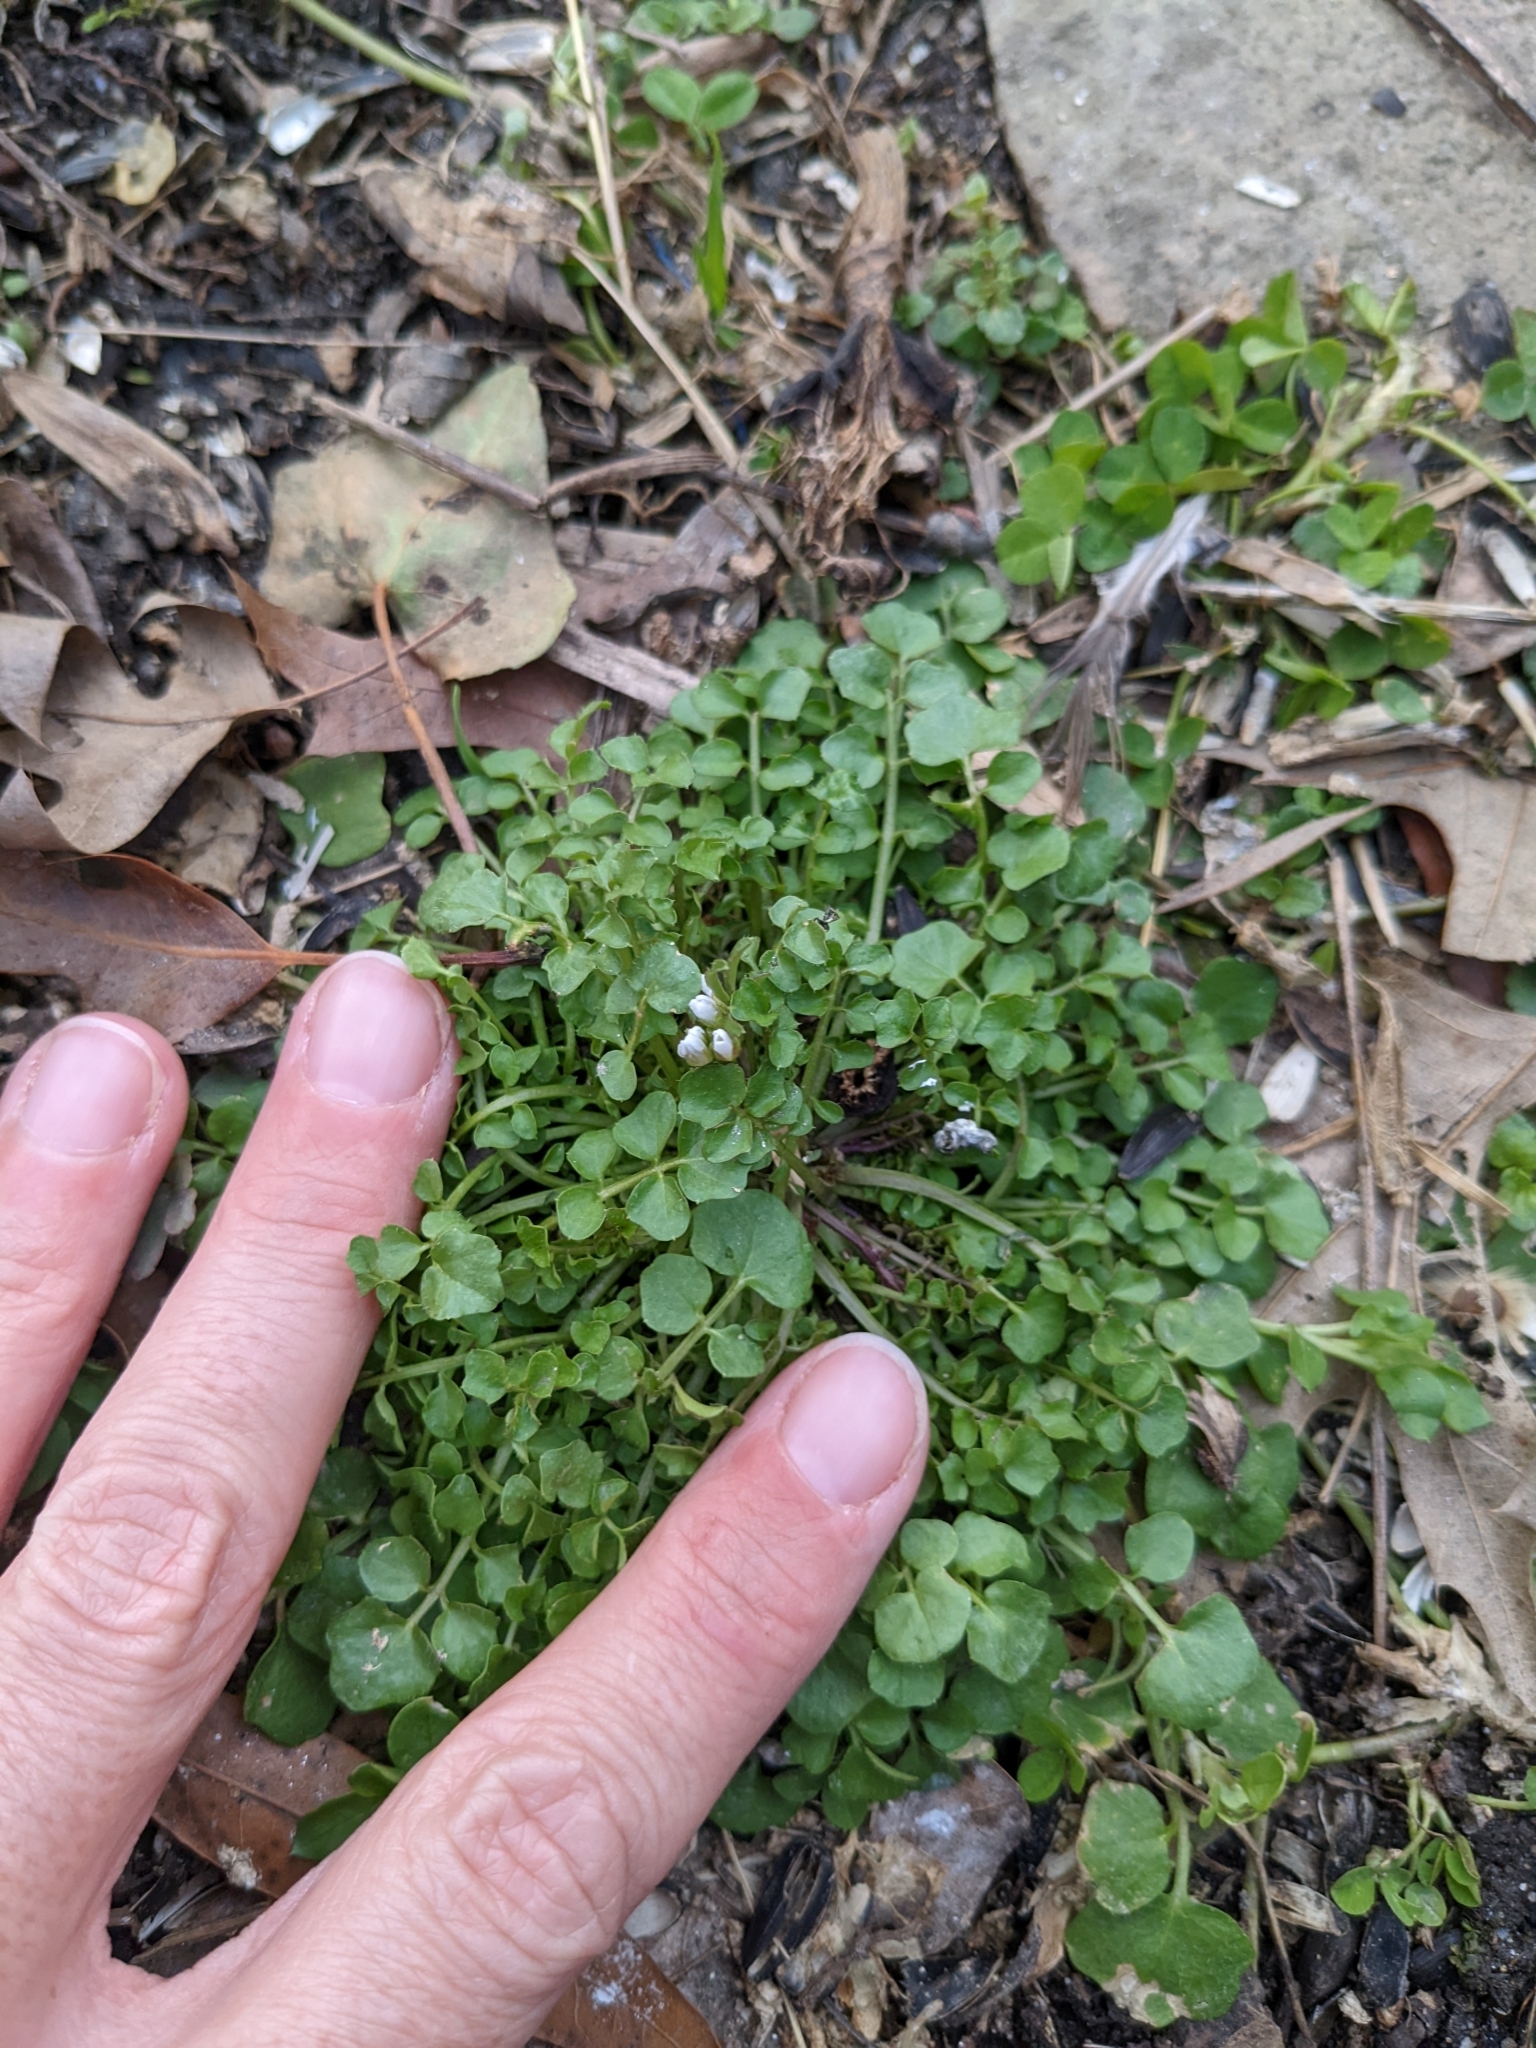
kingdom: Plantae
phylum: Tracheophyta
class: Magnoliopsida
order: Brassicales
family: Brassicaceae
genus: Cardamine
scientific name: Cardamine hirsuta
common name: Hairy bittercress
